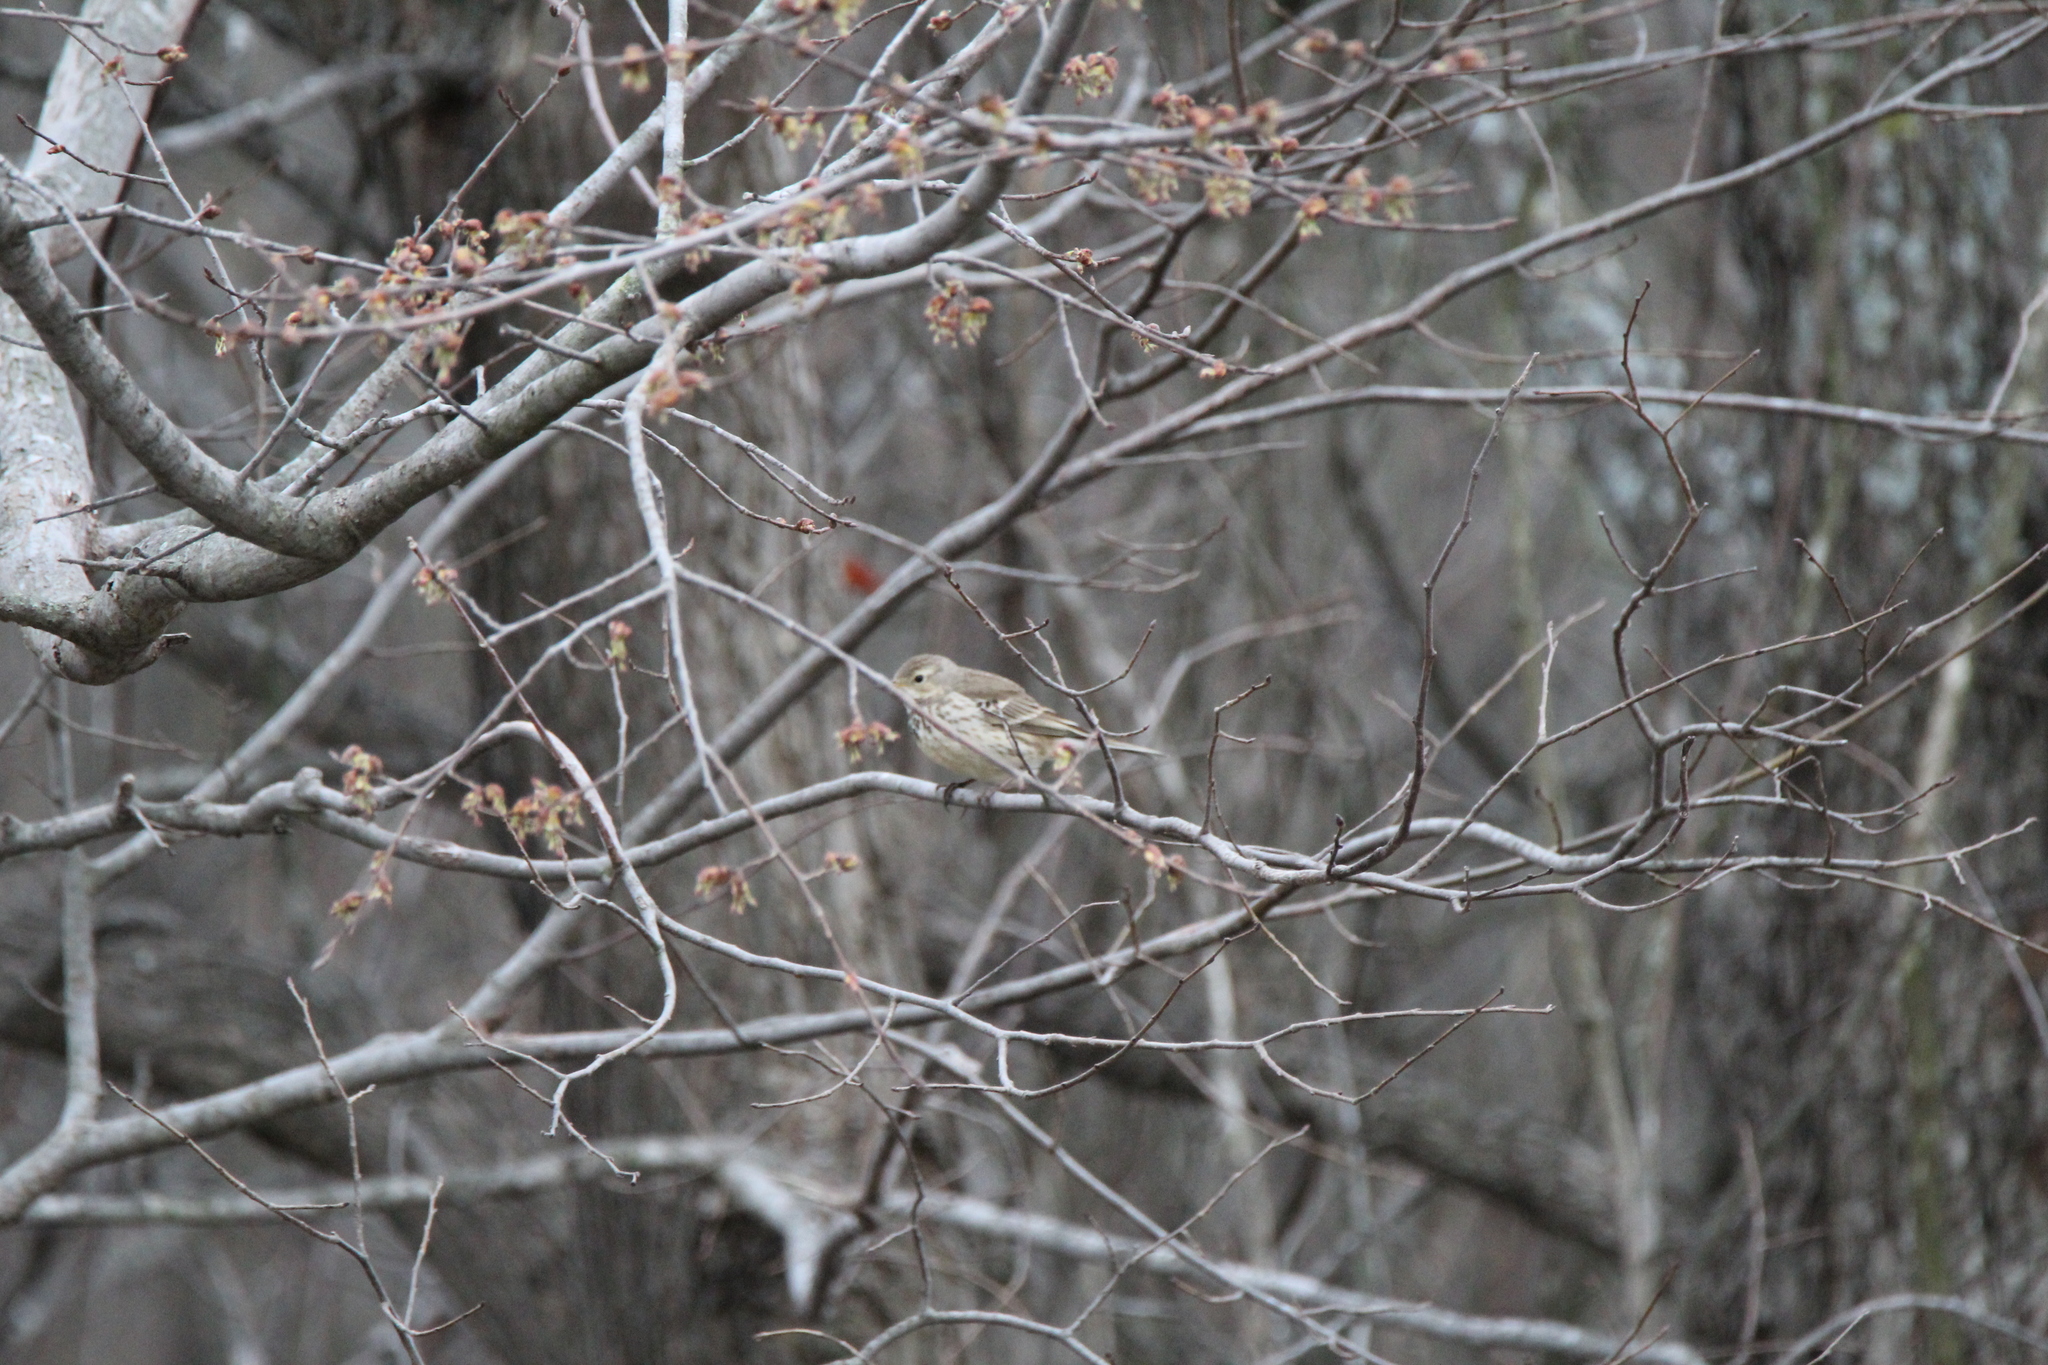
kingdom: Animalia
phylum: Chordata
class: Aves
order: Passeriformes
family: Motacillidae
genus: Anthus
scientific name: Anthus rubescens
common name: Buff-bellied pipit
